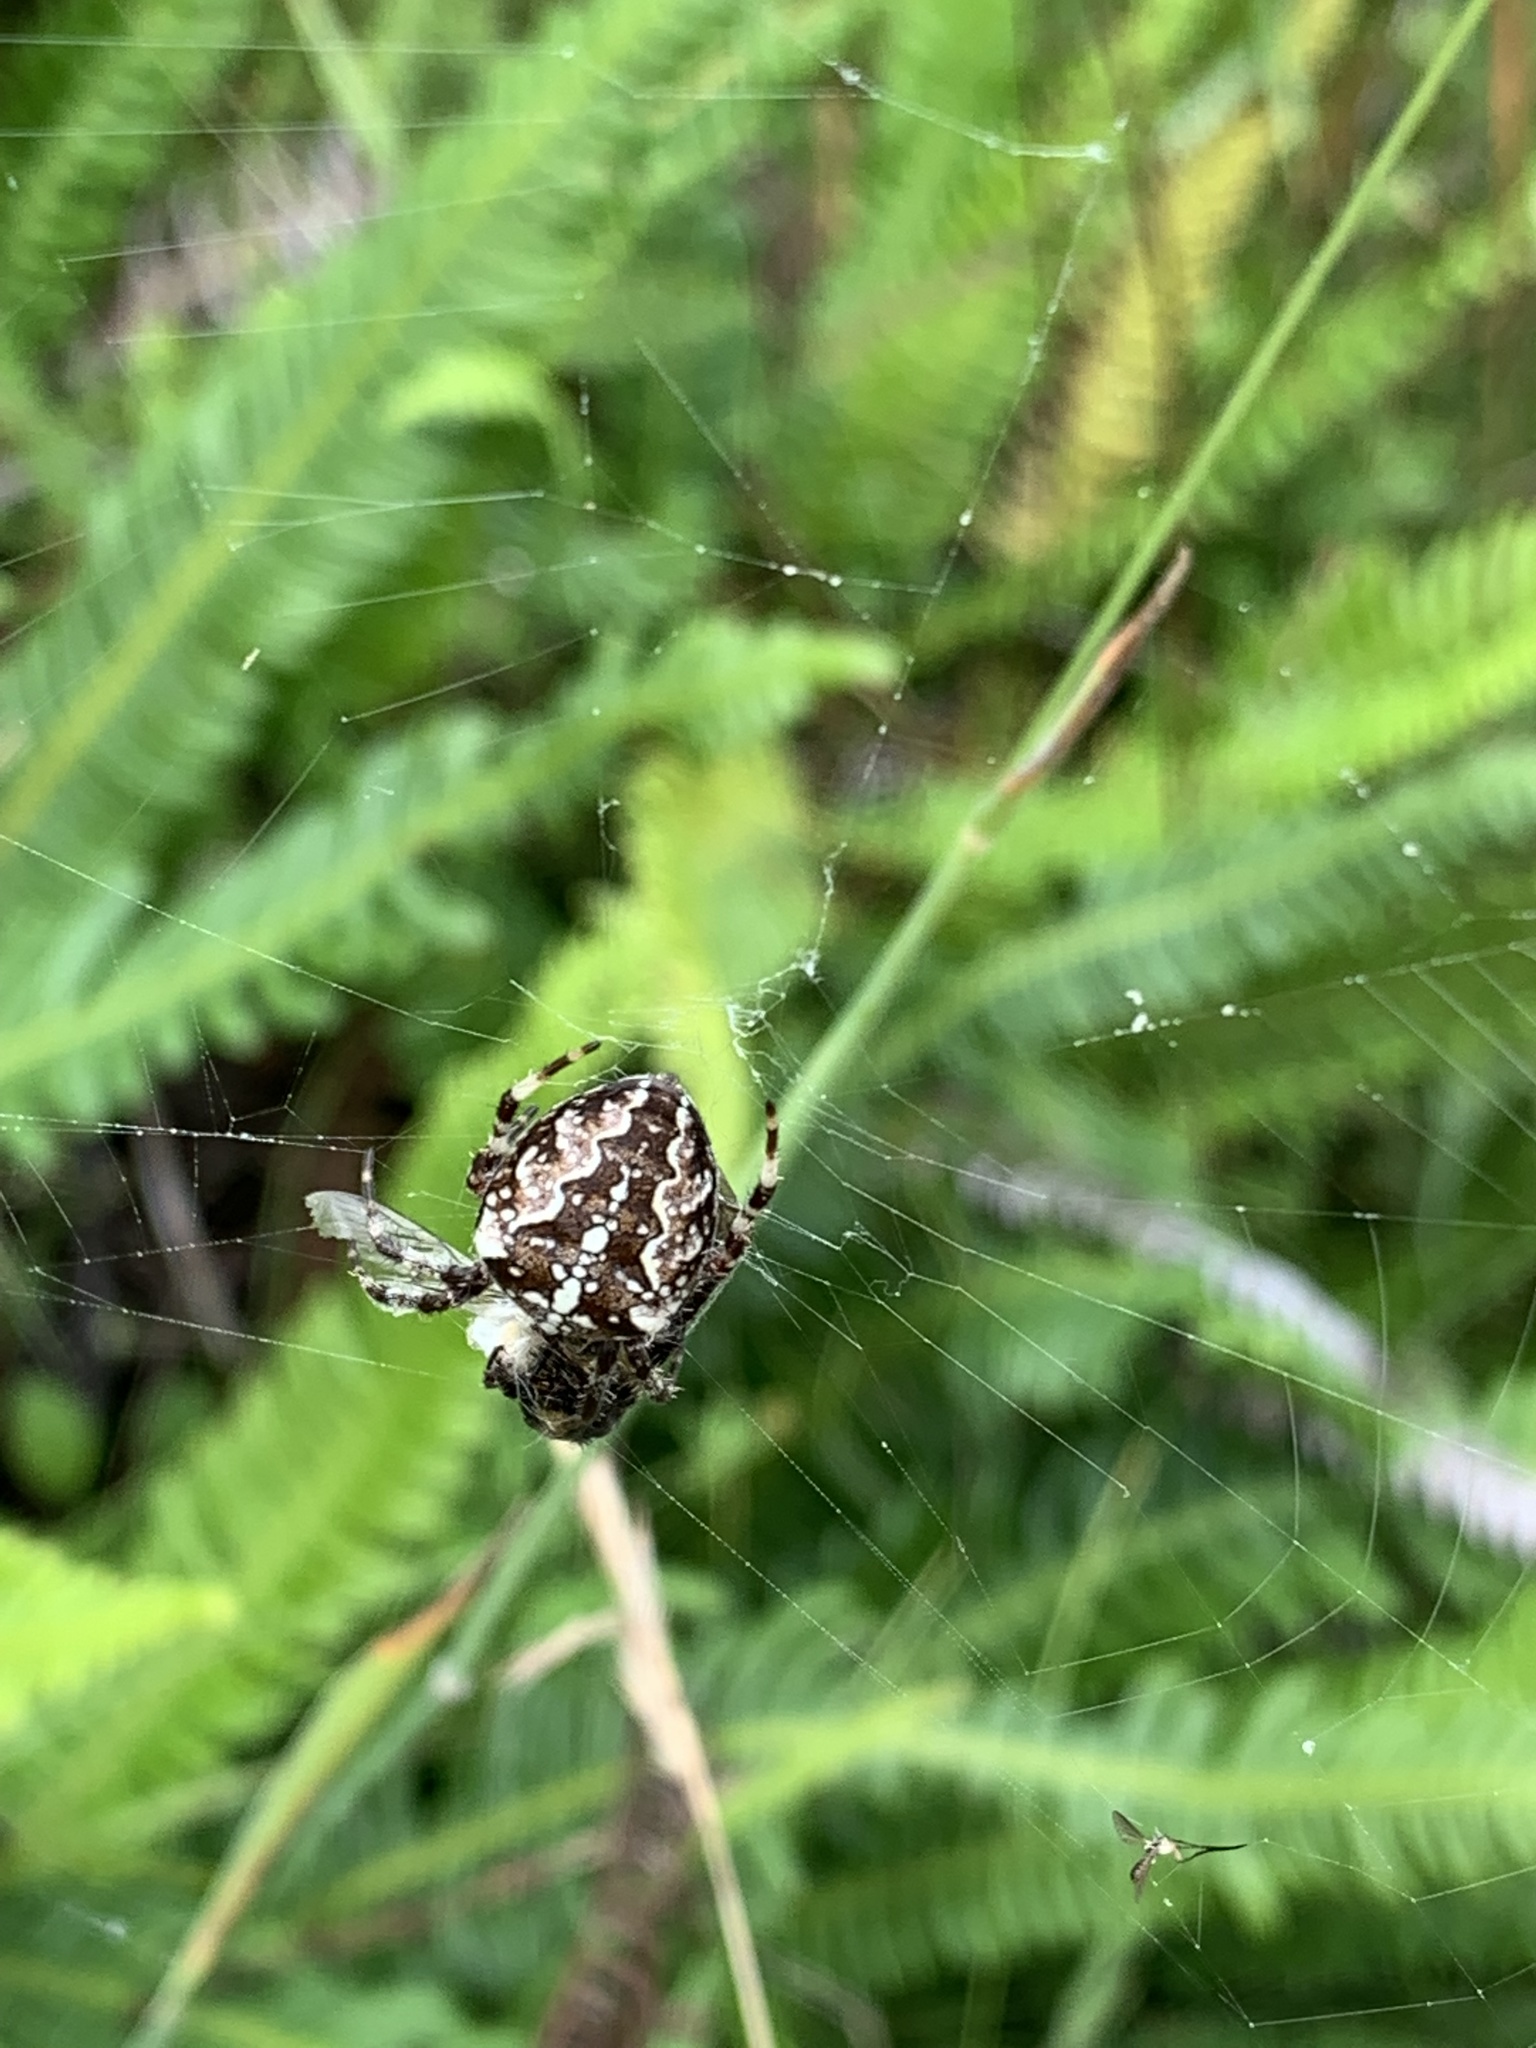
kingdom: Animalia
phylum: Arthropoda
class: Arachnida
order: Araneae
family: Araneidae
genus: Araneus
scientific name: Araneus diadematus
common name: Cross orbweaver
